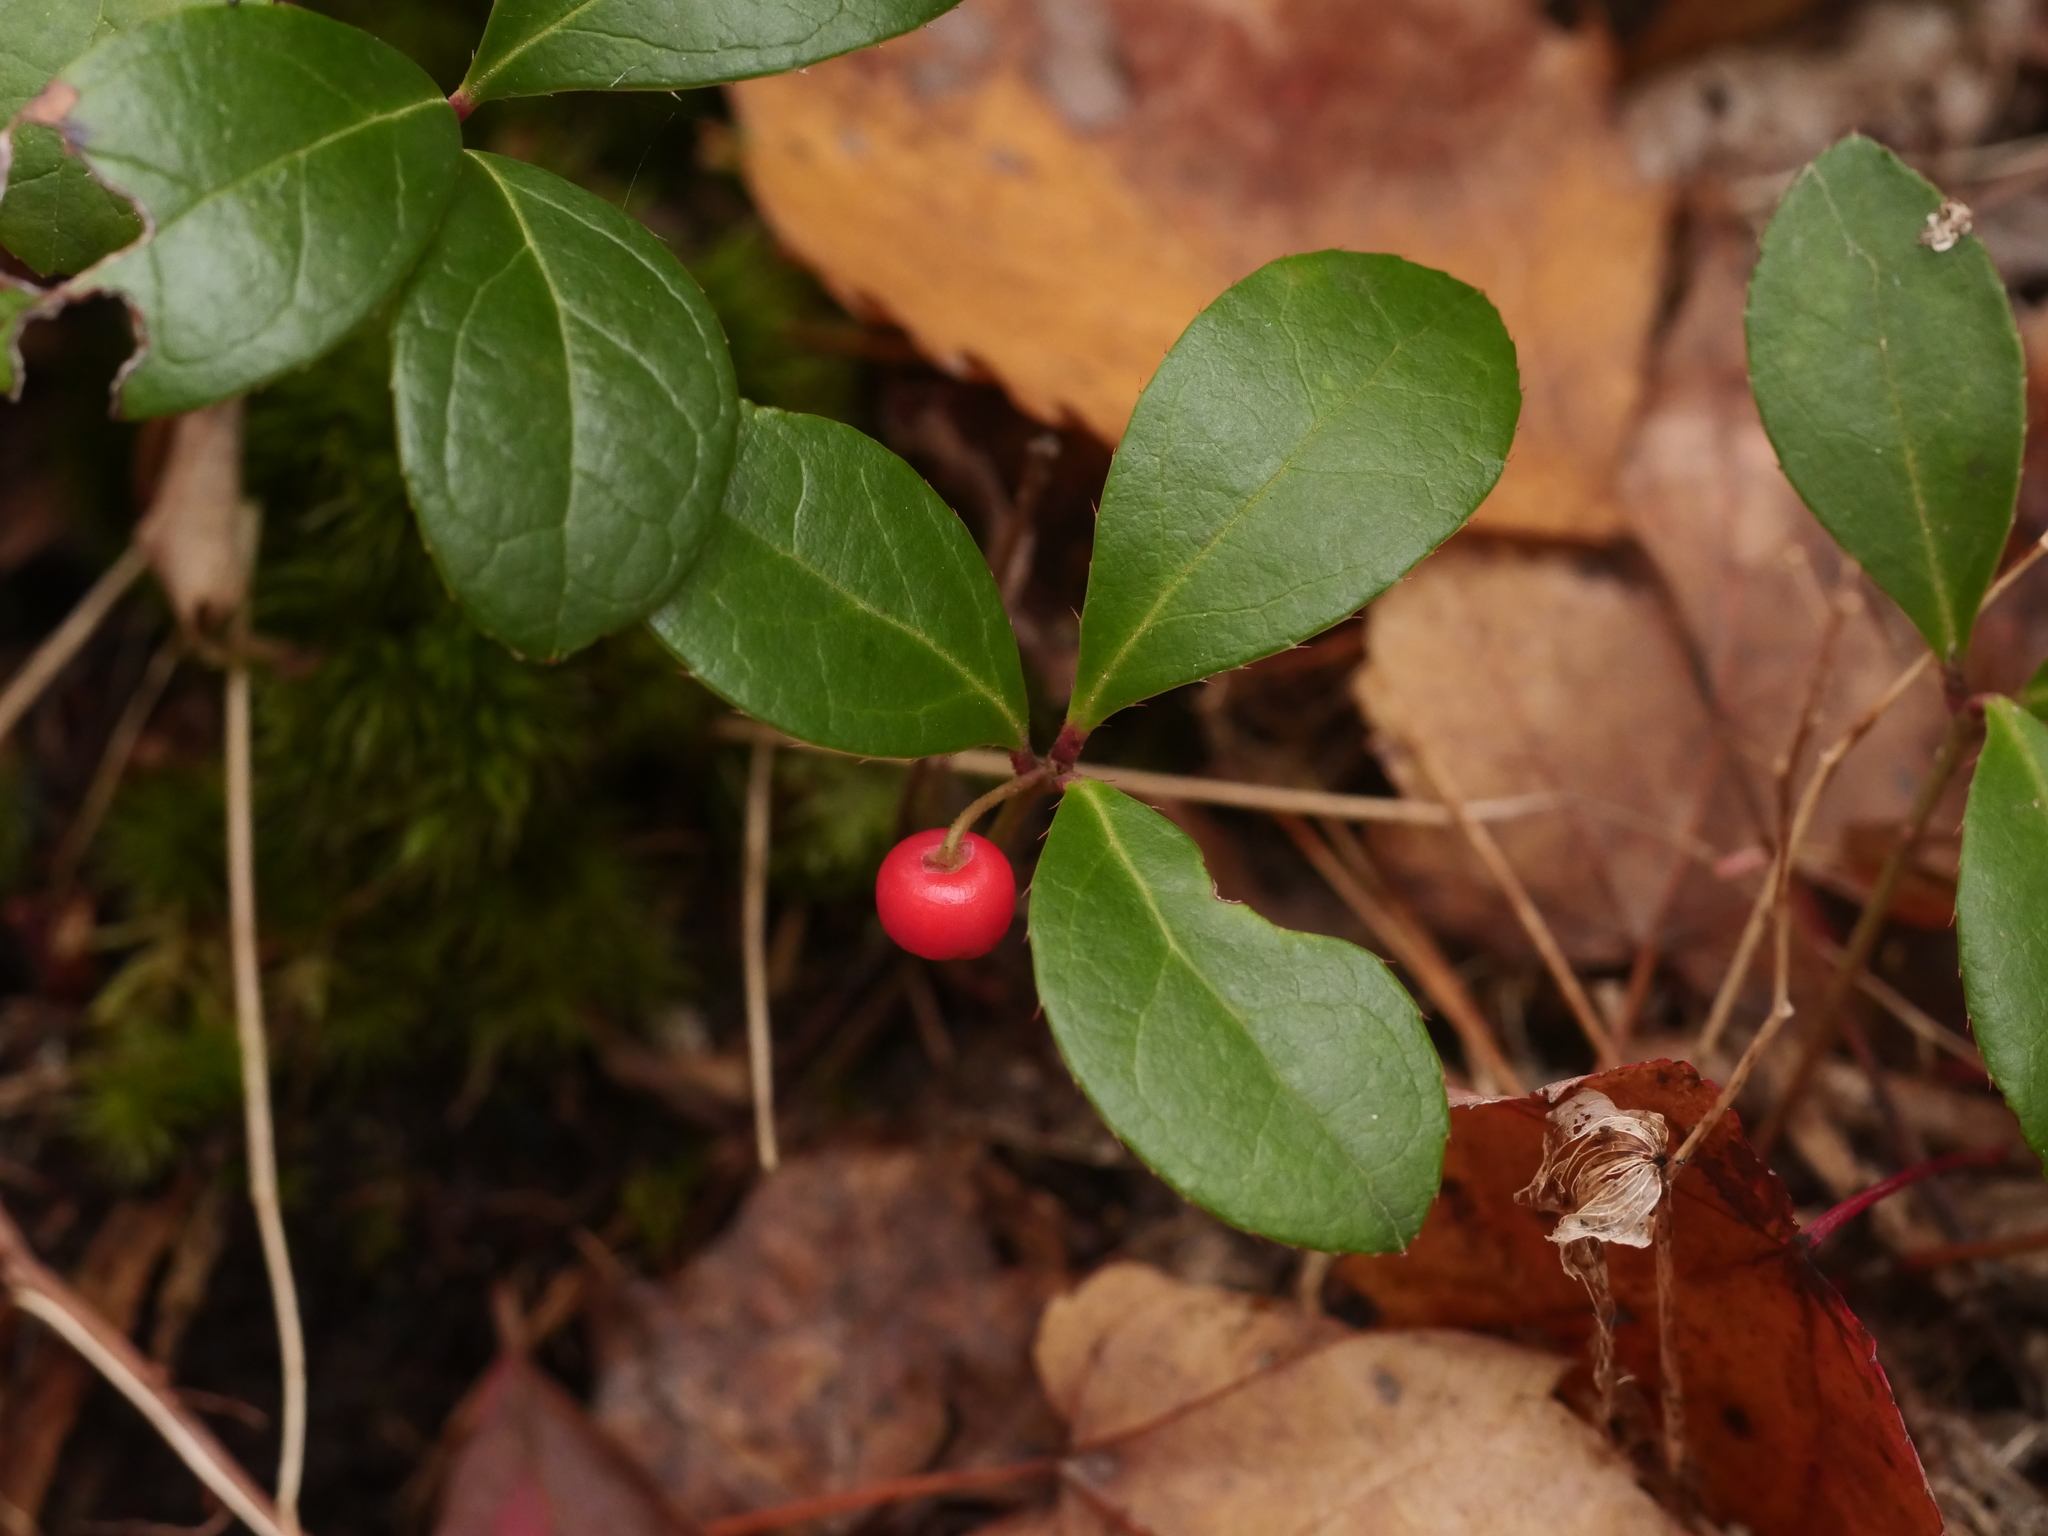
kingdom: Plantae
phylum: Tracheophyta
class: Magnoliopsida
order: Ericales
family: Ericaceae
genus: Gaultheria
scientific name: Gaultheria procumbens
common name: Checkerberry
